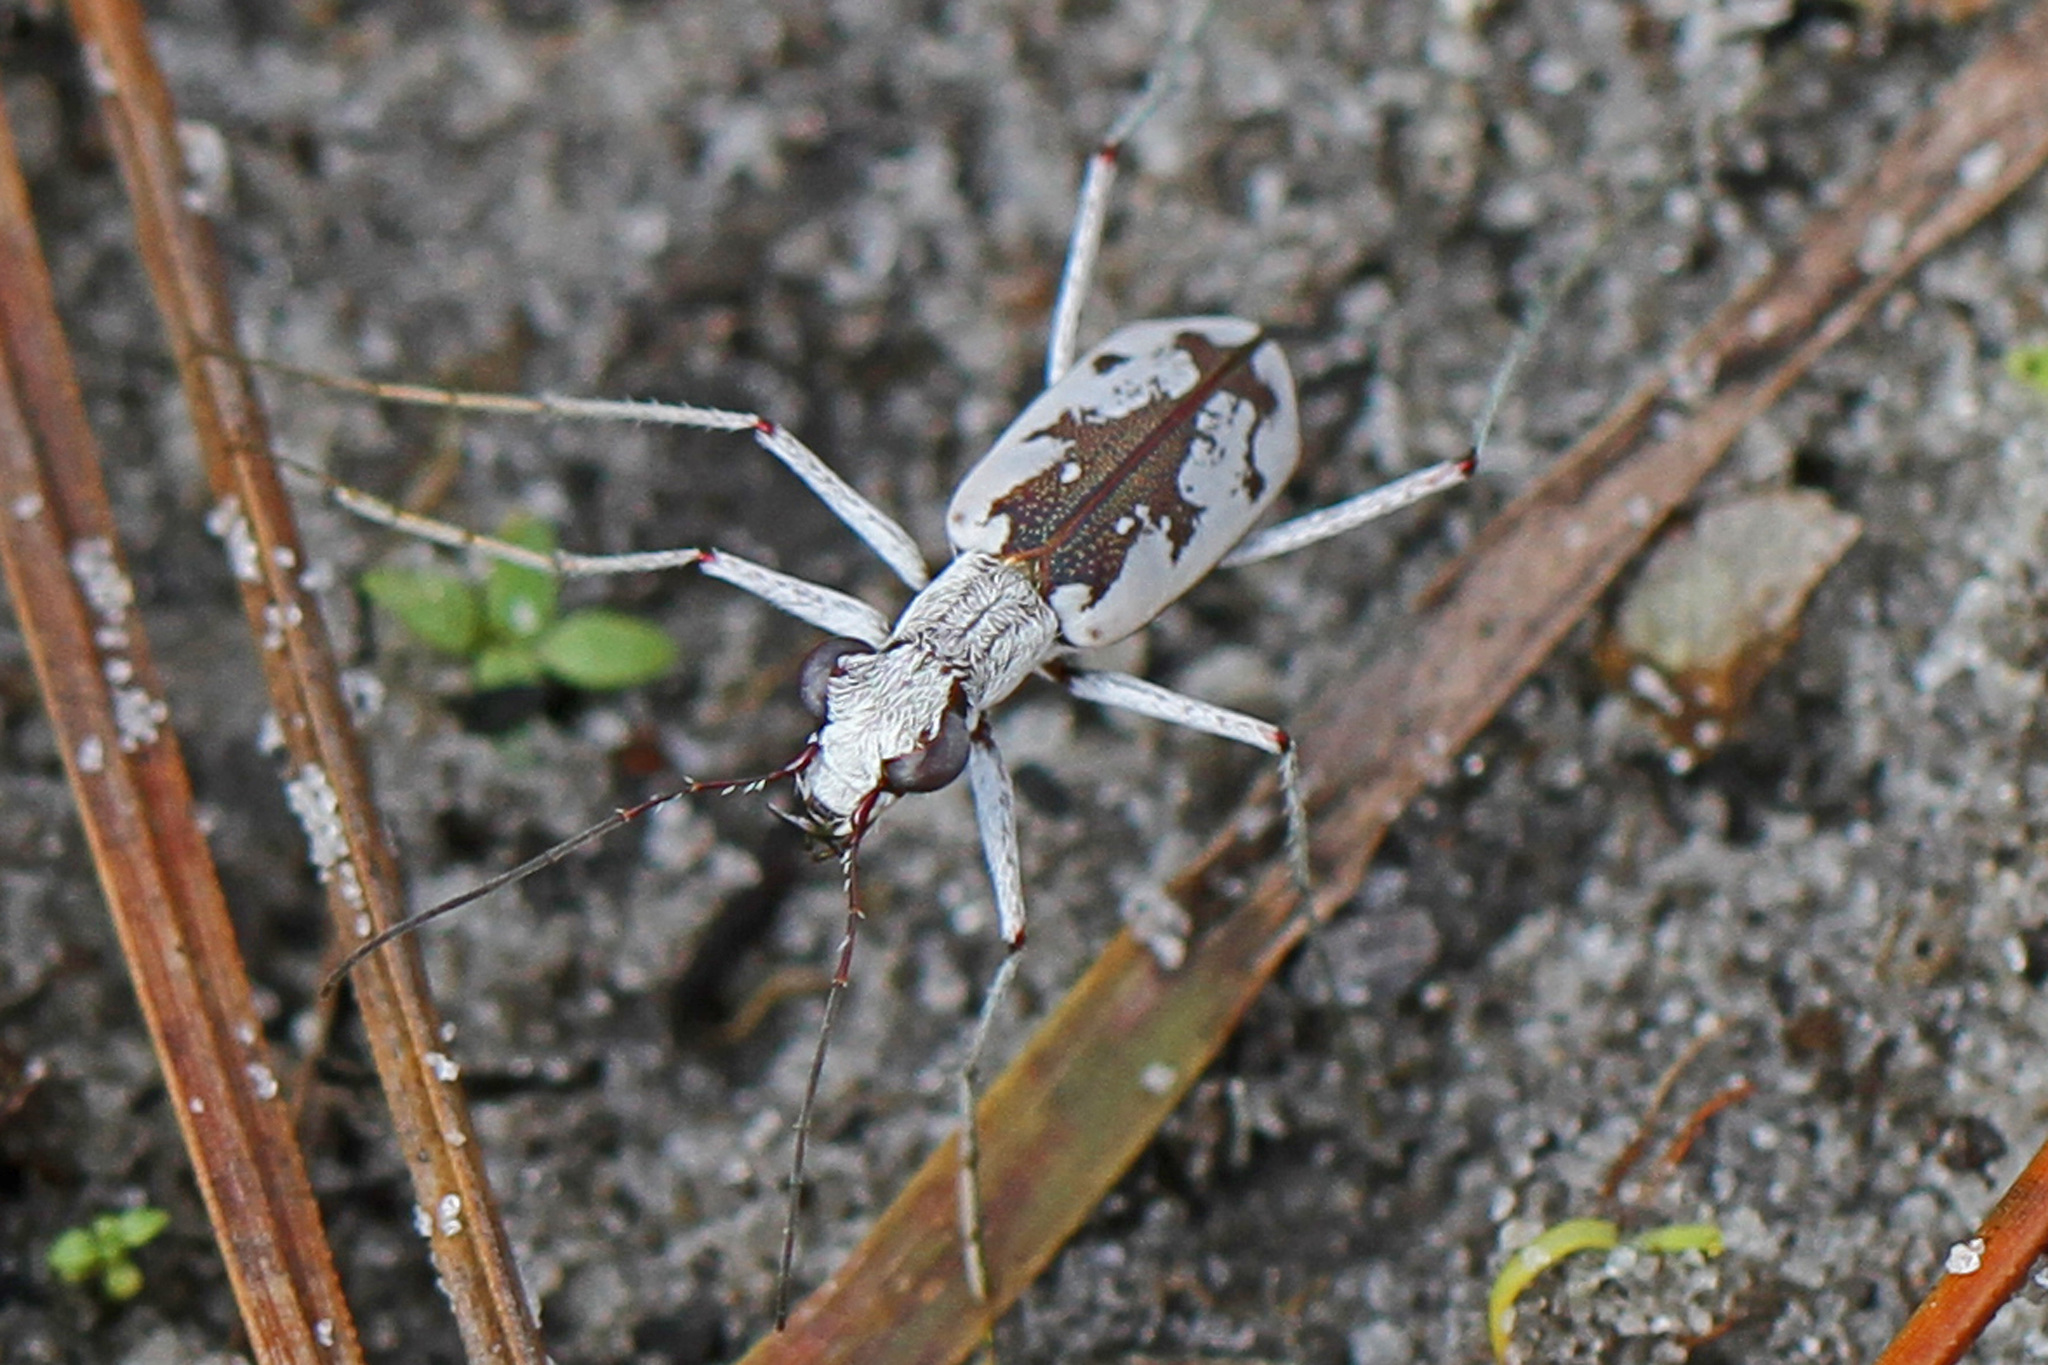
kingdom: Animalia
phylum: Arthropoda
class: Insecta
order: Coleoptera
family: Carabidae
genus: Ellipsoptera
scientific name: Ellipsoptera hirtilabris
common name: Moustached tiger beetle
